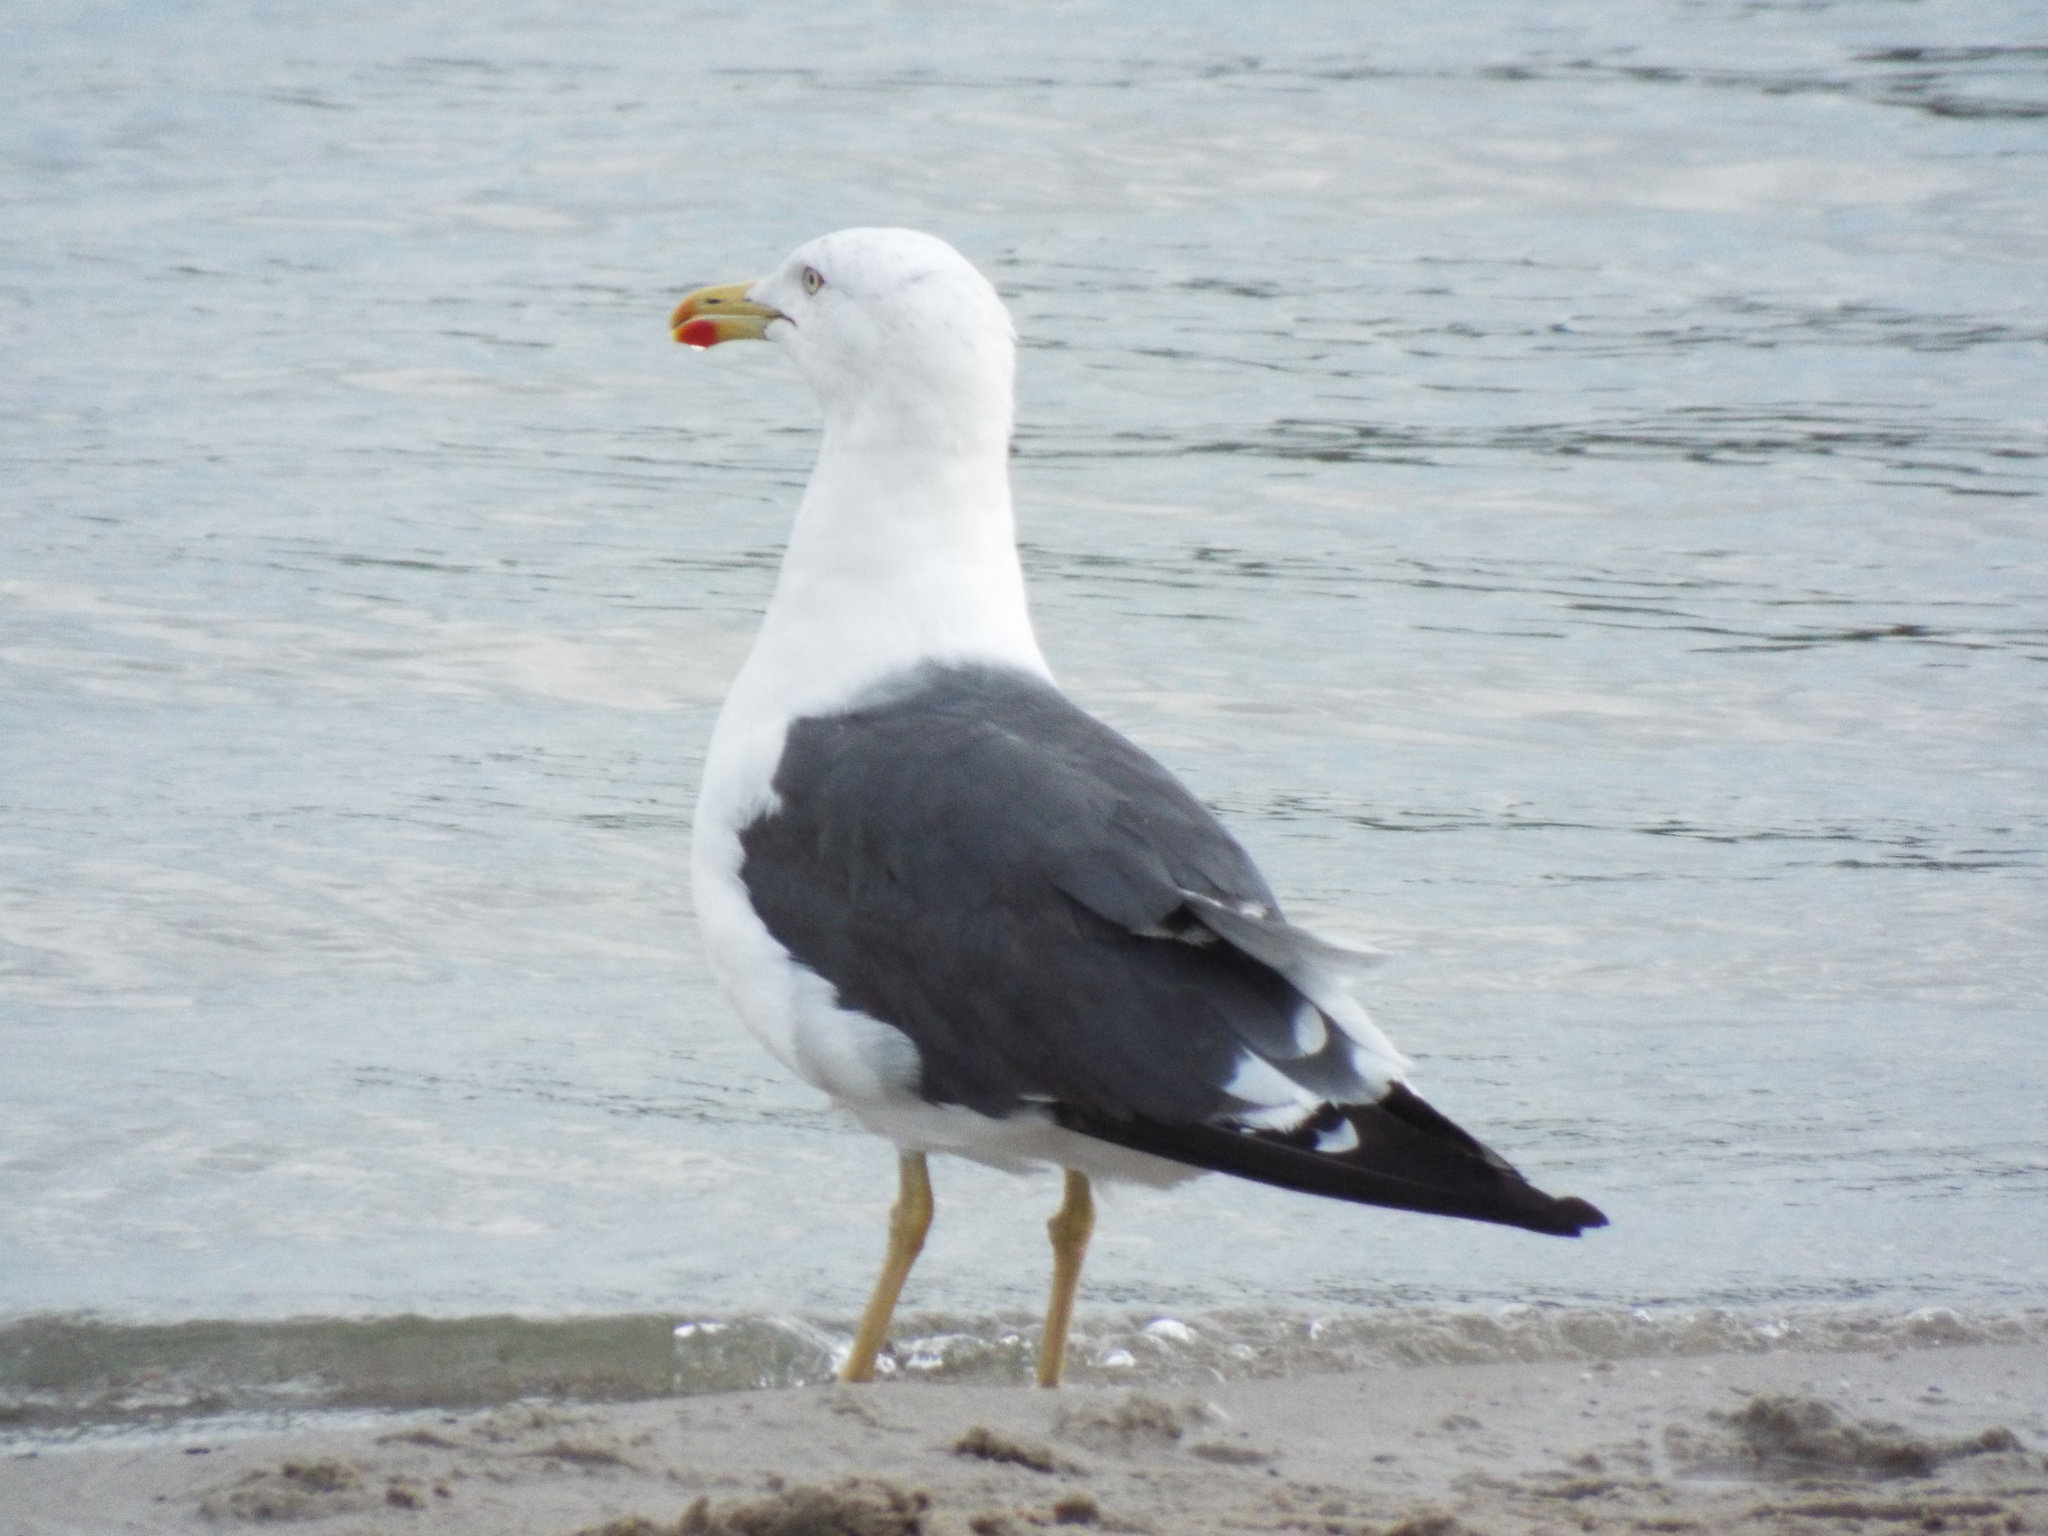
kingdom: Animalia
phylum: Chordata
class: Aves
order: Charadriiformes
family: Laridae
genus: Larus
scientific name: Larus fuscus
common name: Lesser black-backed gull
